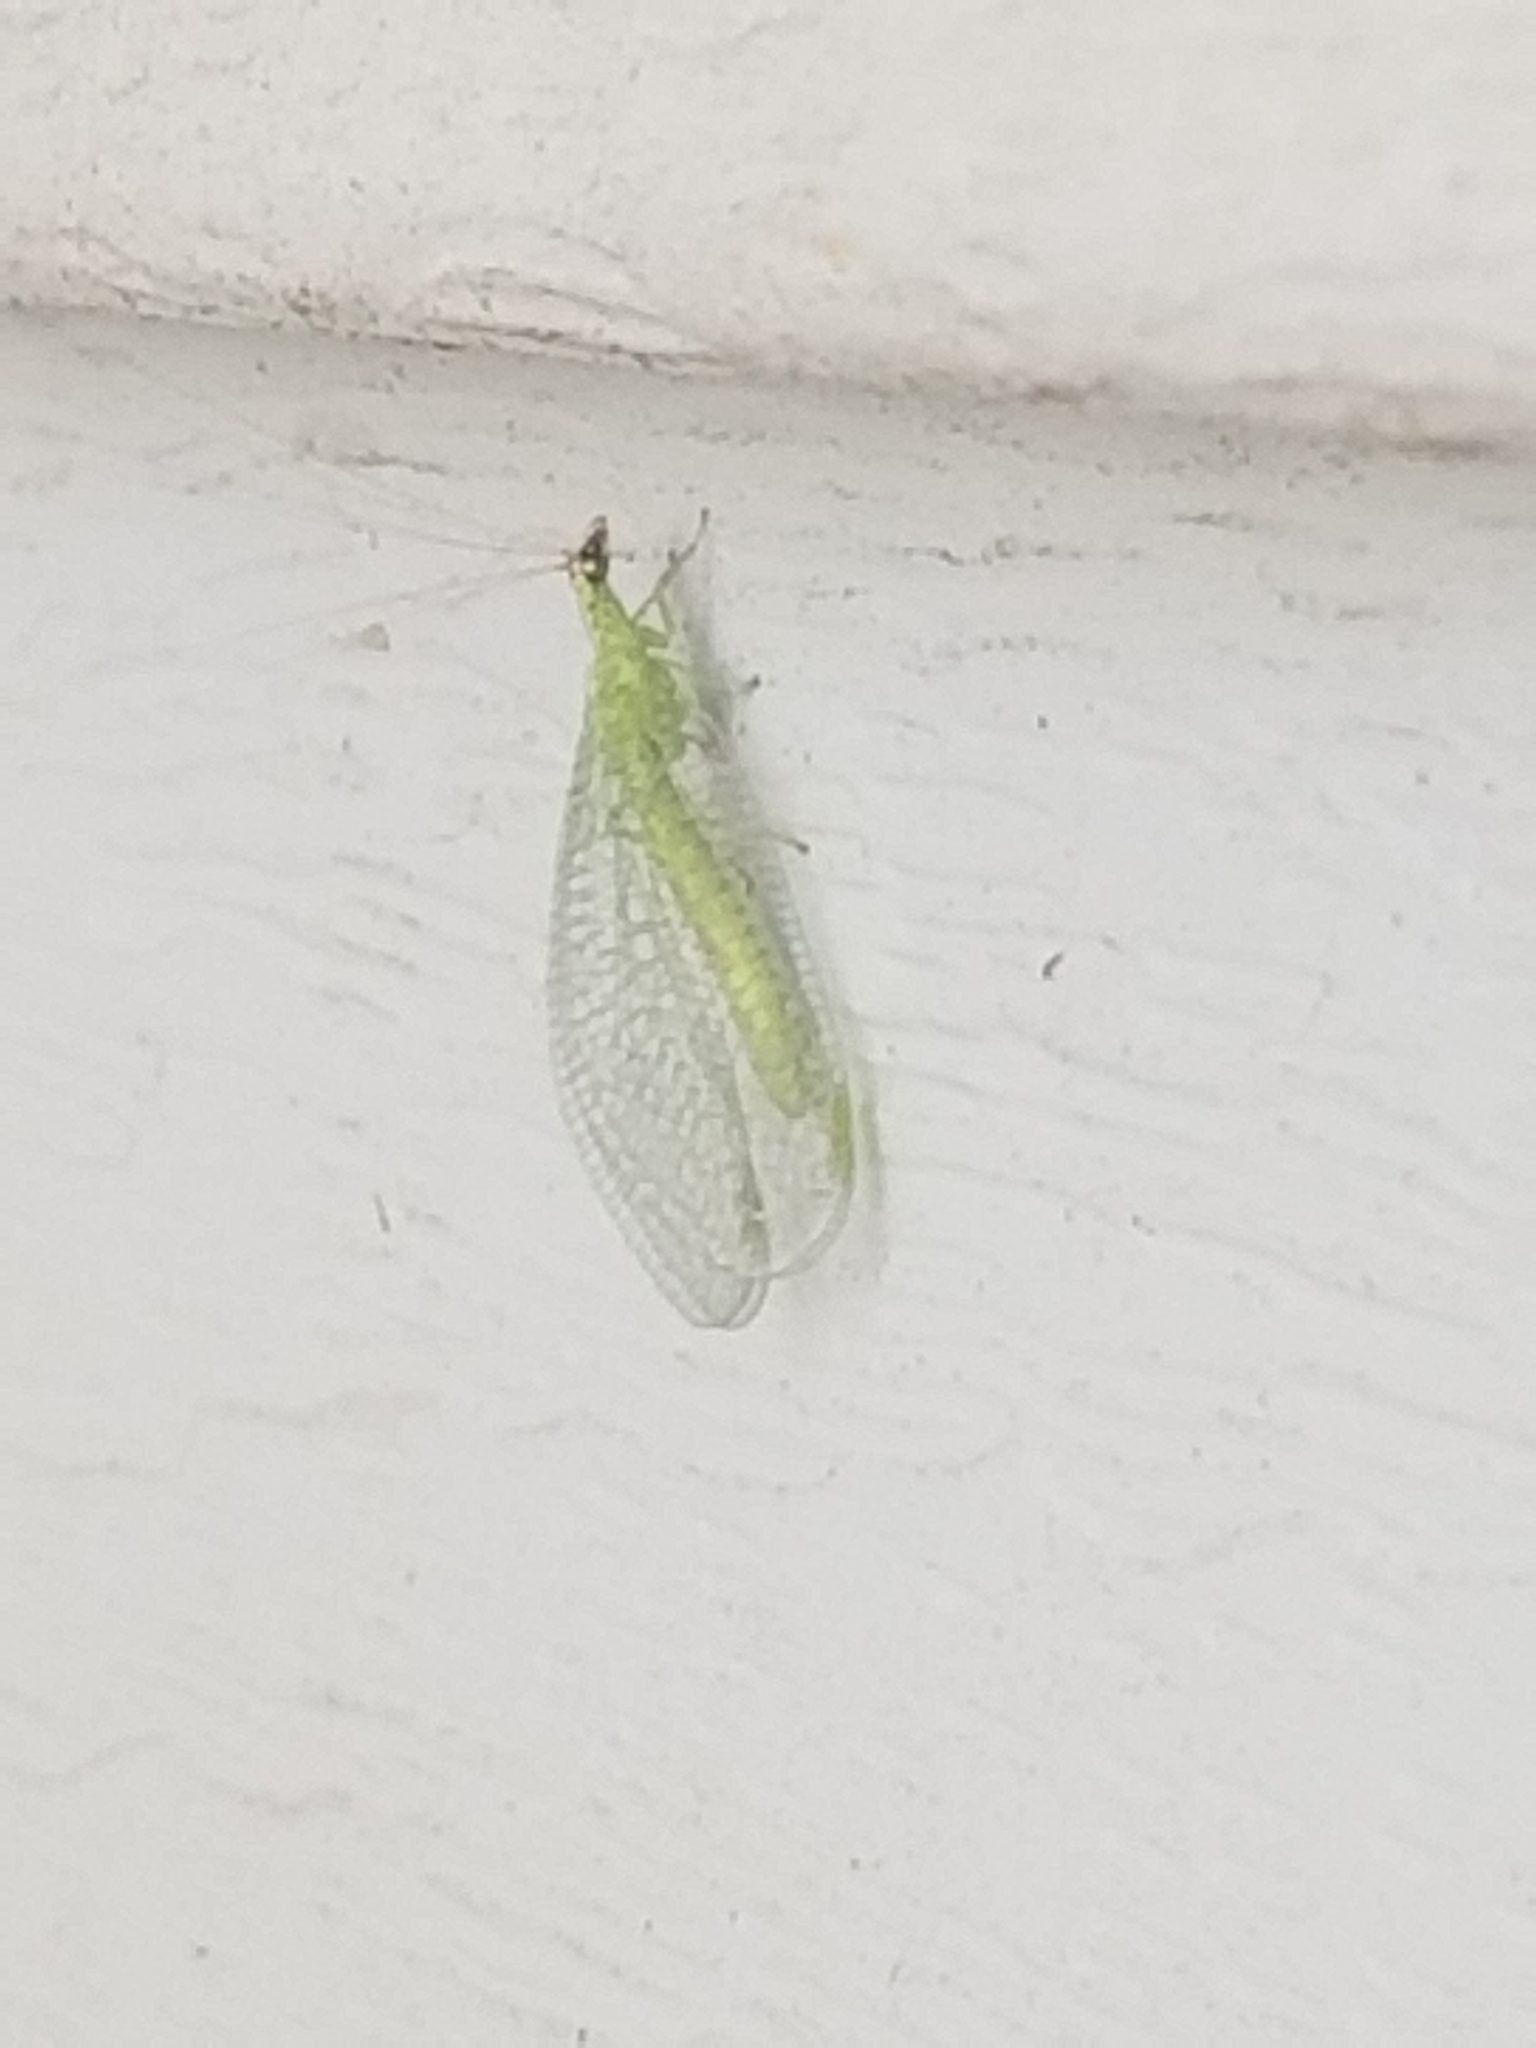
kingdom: Animalia
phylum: Arthropoda
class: Insecta
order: Neuroptera
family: Chrysopidae
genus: Chrysopa
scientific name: Chrysopa oculata
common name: Golden-eyed lacewing
